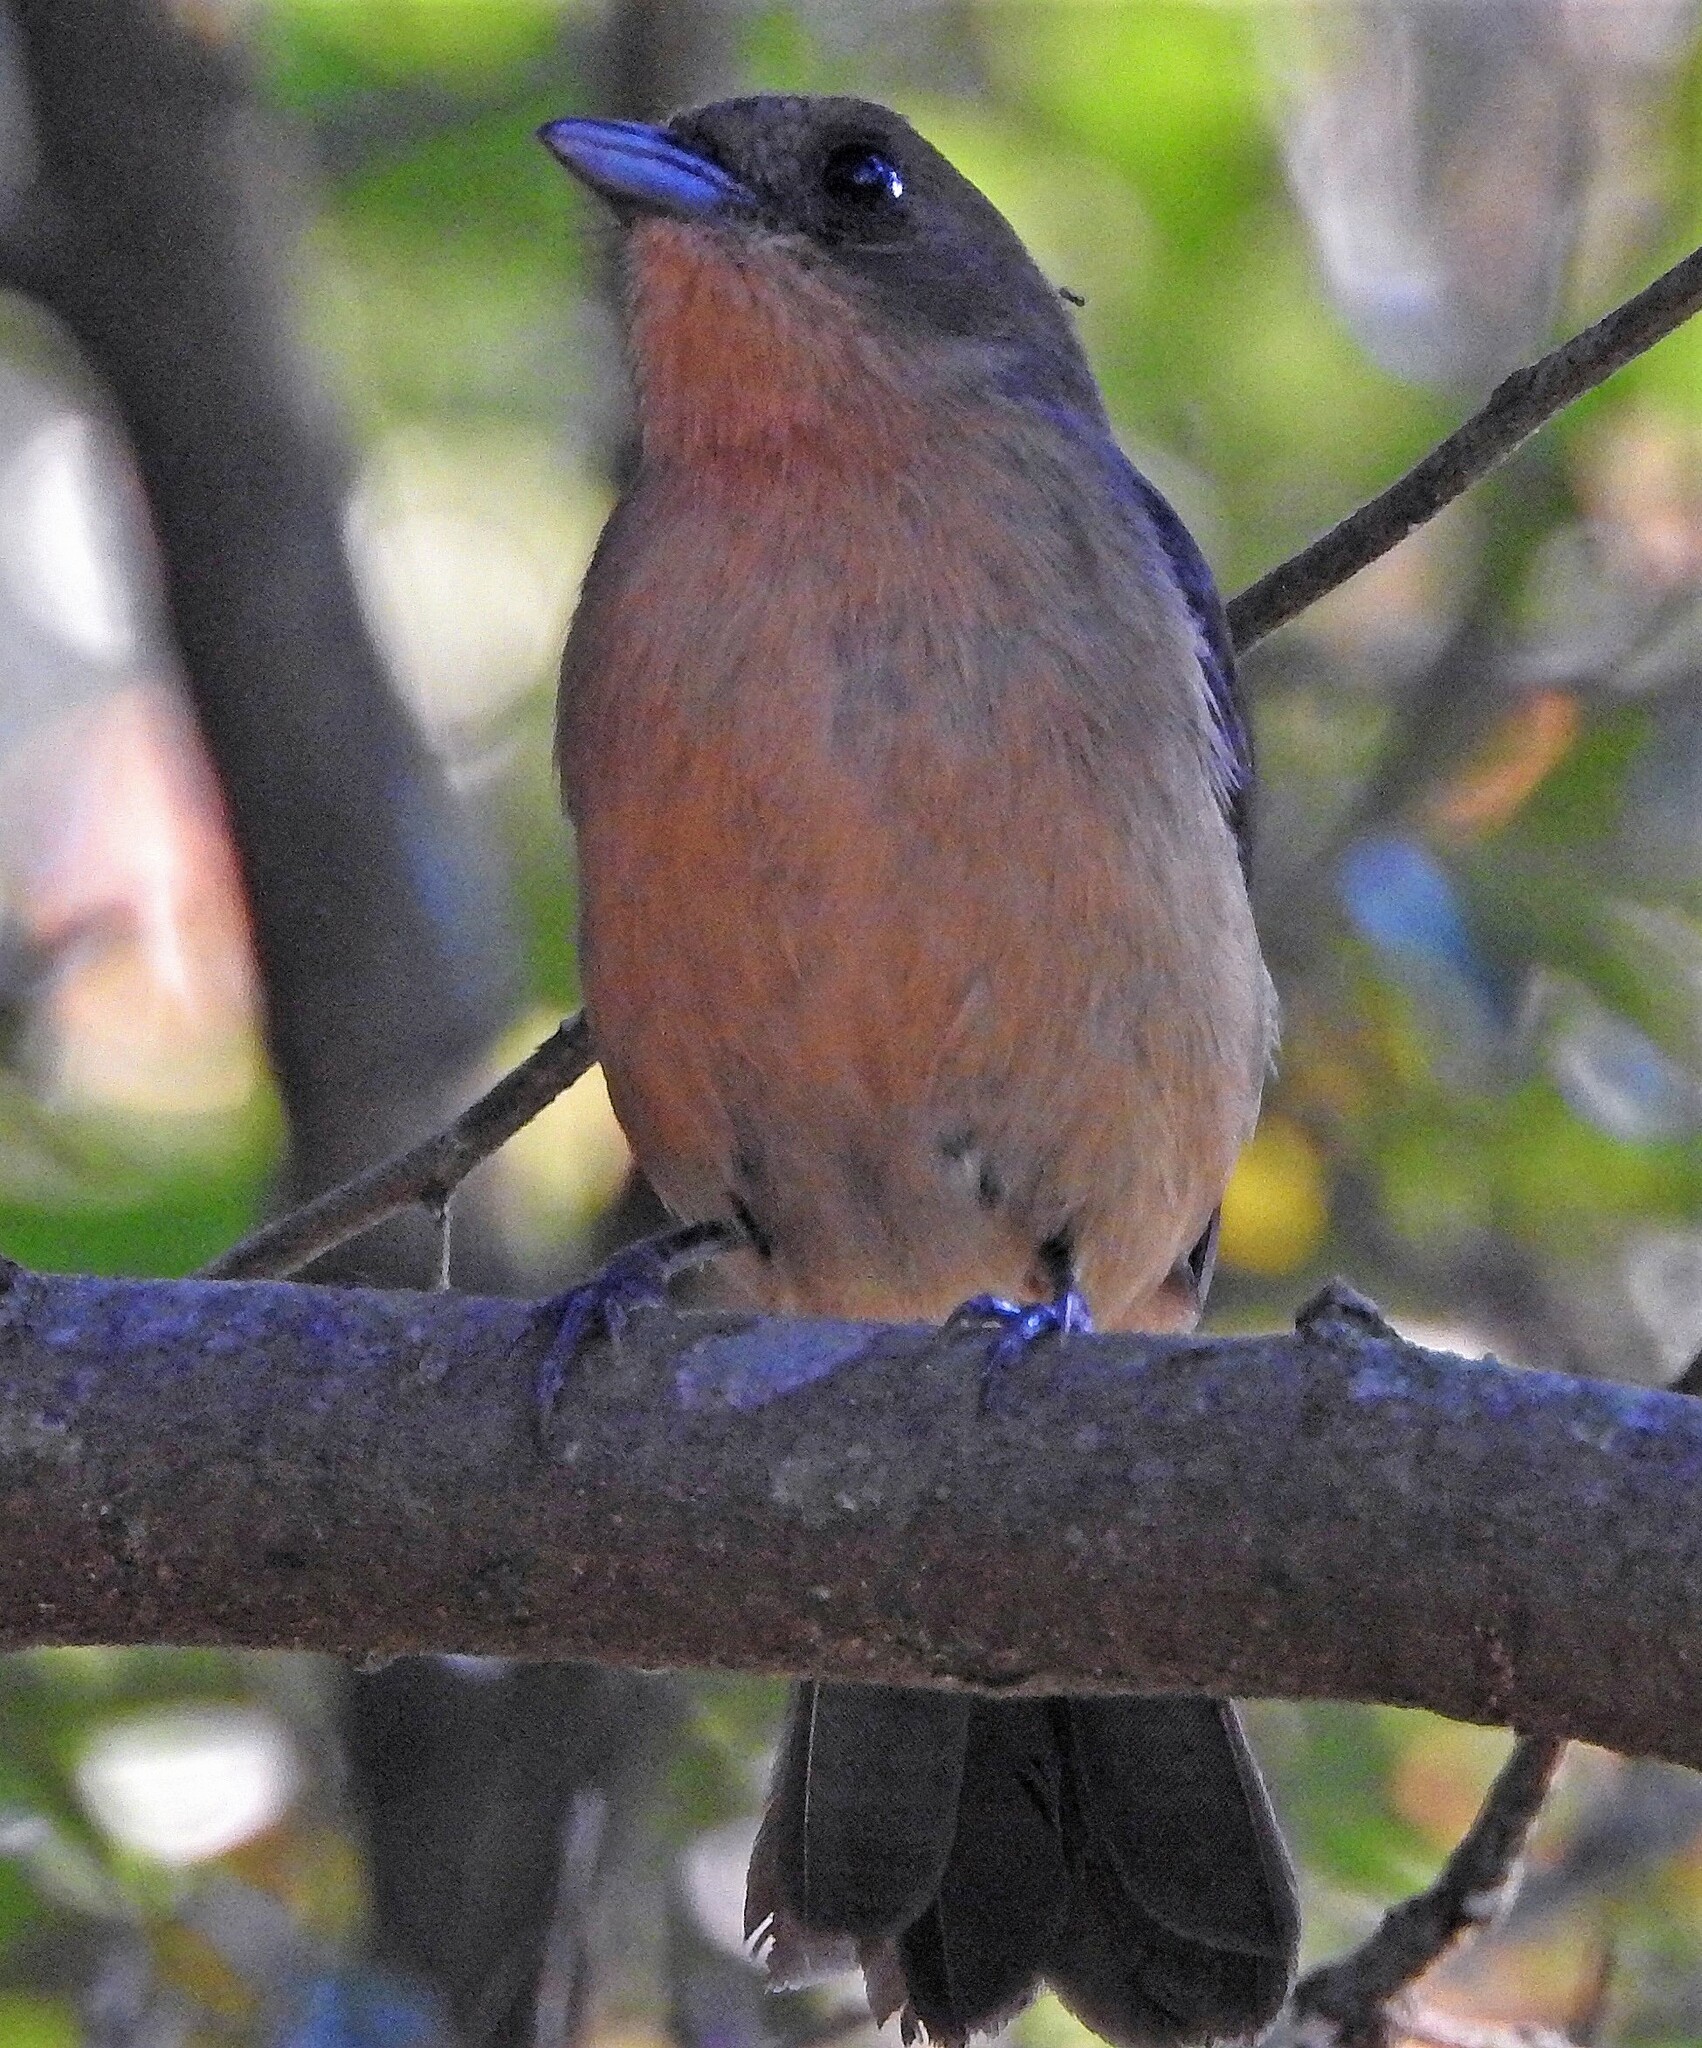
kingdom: Animalia
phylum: Chordata
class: Aves
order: Passeriformes
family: Thraupidae
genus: Trichothraupis
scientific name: Trichothraupis melanops
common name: Black-goggled tanager
